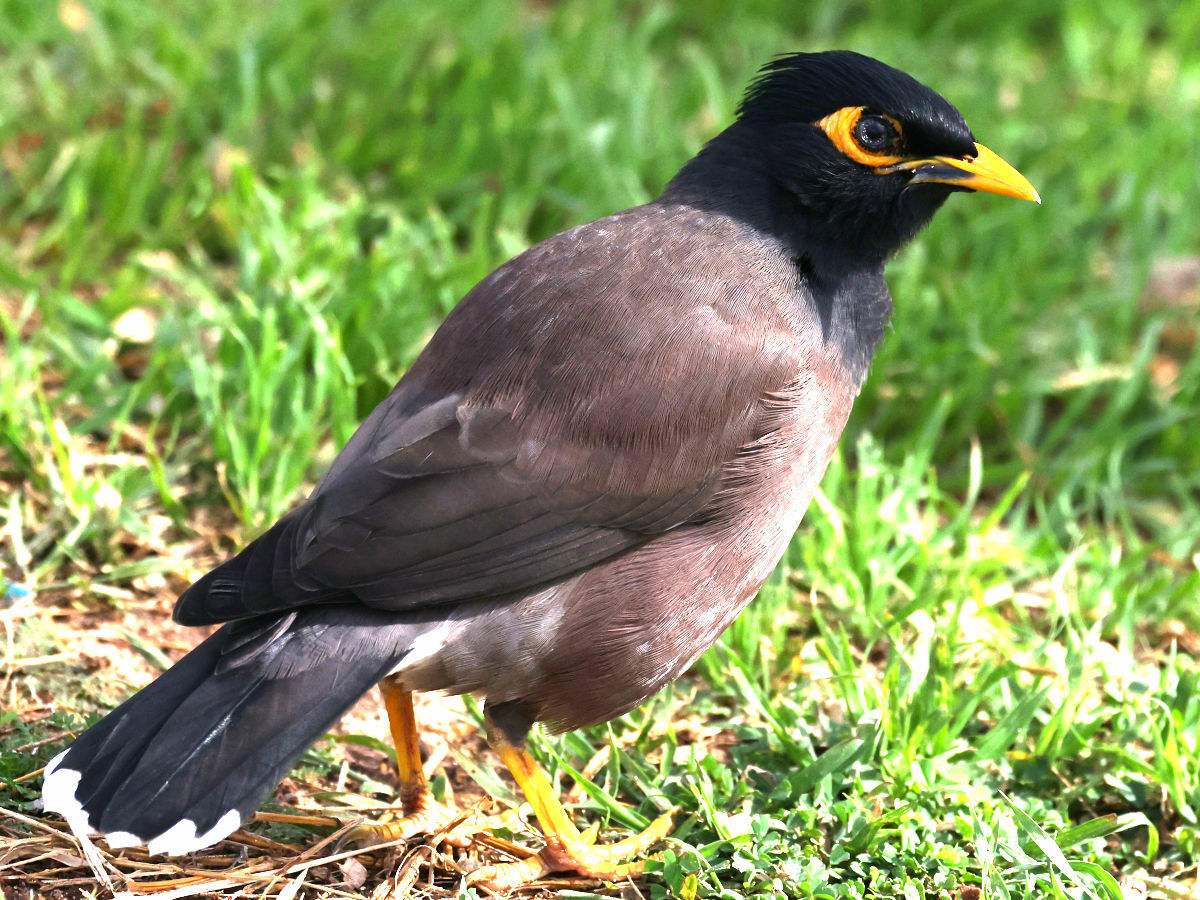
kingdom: Animalia
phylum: Chordata
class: Aves
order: Passeriformes
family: Sturnidae
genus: Acridotheres
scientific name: Acridotheres tristis
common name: Common myna
